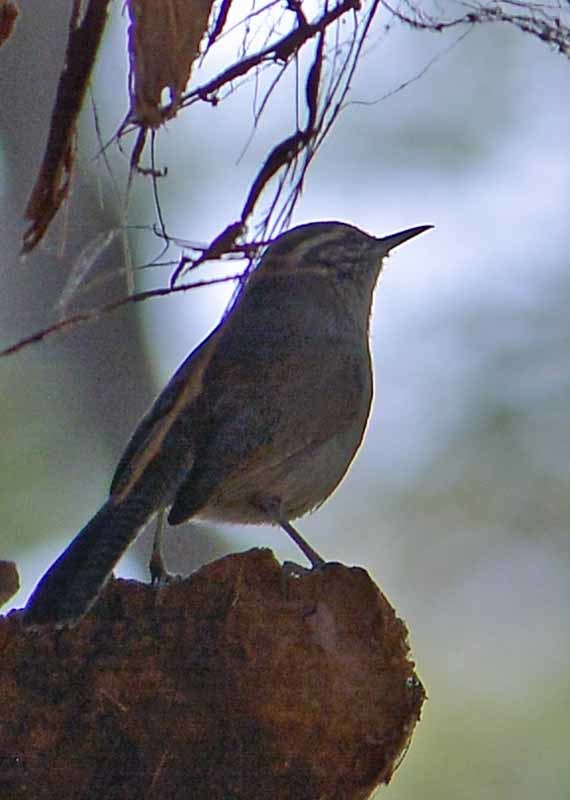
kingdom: Animalia
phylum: Chordata
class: Aves
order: Passeriformes
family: Troglodytidae
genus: Thryomanes
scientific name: Thryomanes bewickii
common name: Bewick's wren
